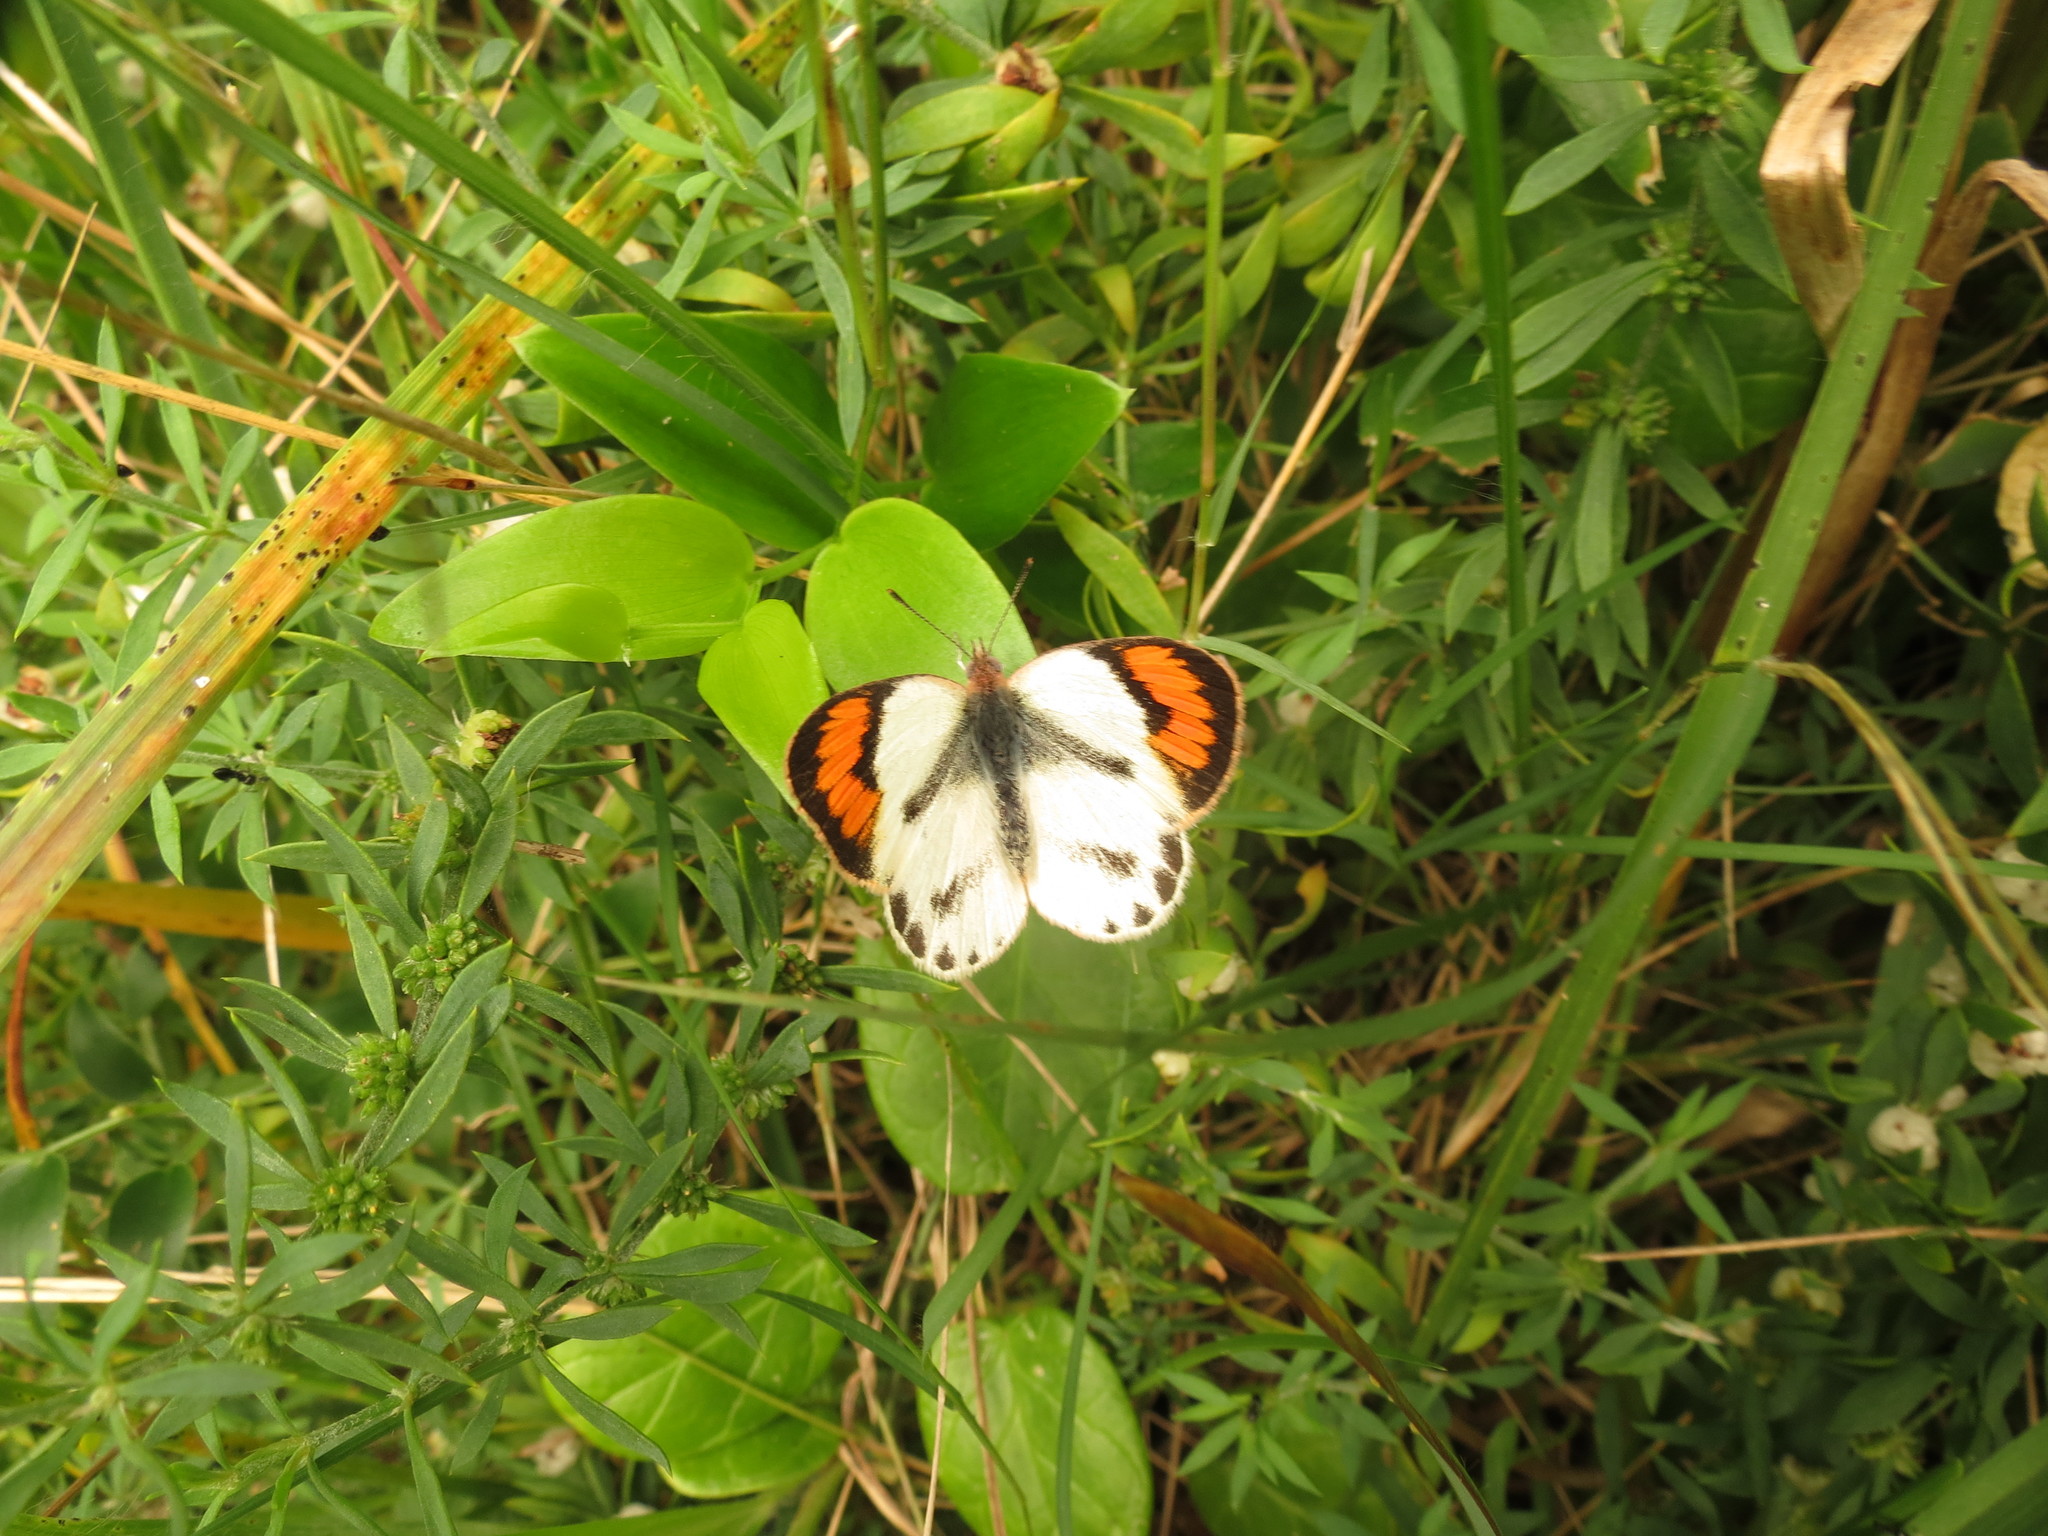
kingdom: Animalia
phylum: Arthropoda
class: Insecta
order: Lepidoptera
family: Pieridae
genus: Colotis
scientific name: Colotis euippe
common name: Round-winged orange tip
